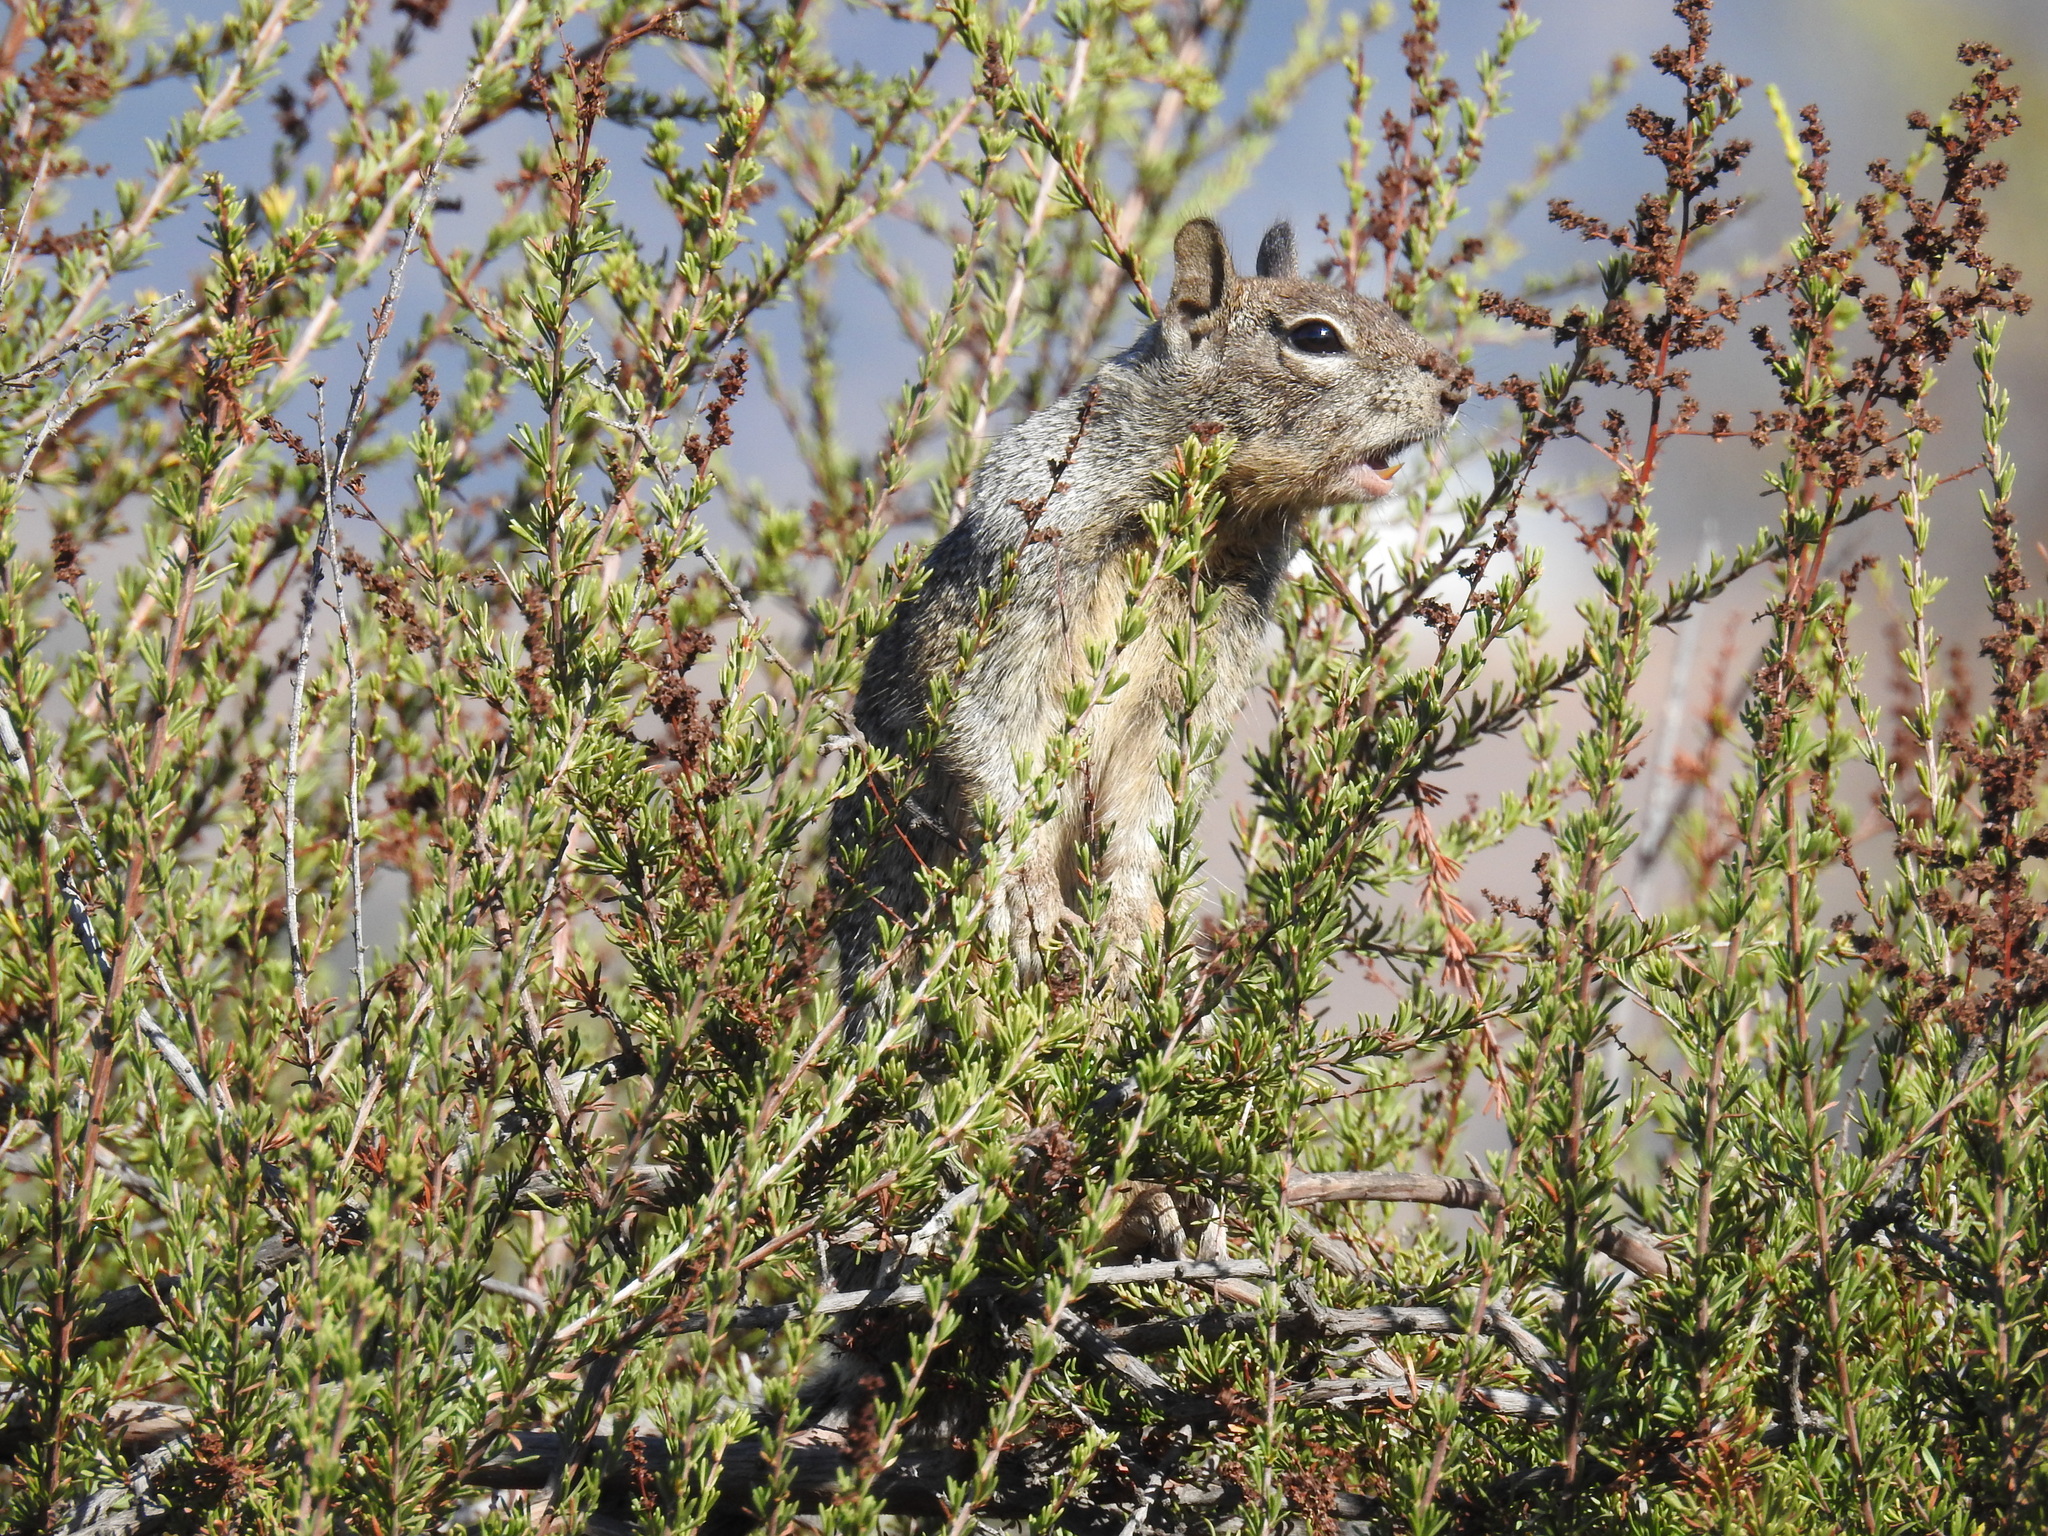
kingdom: Animalia
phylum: Chordata
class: Mammalia
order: Rodentia
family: Sciuridae
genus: Otospermophilus
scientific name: Otospermophilus beecheyi
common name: California ground squirrel
